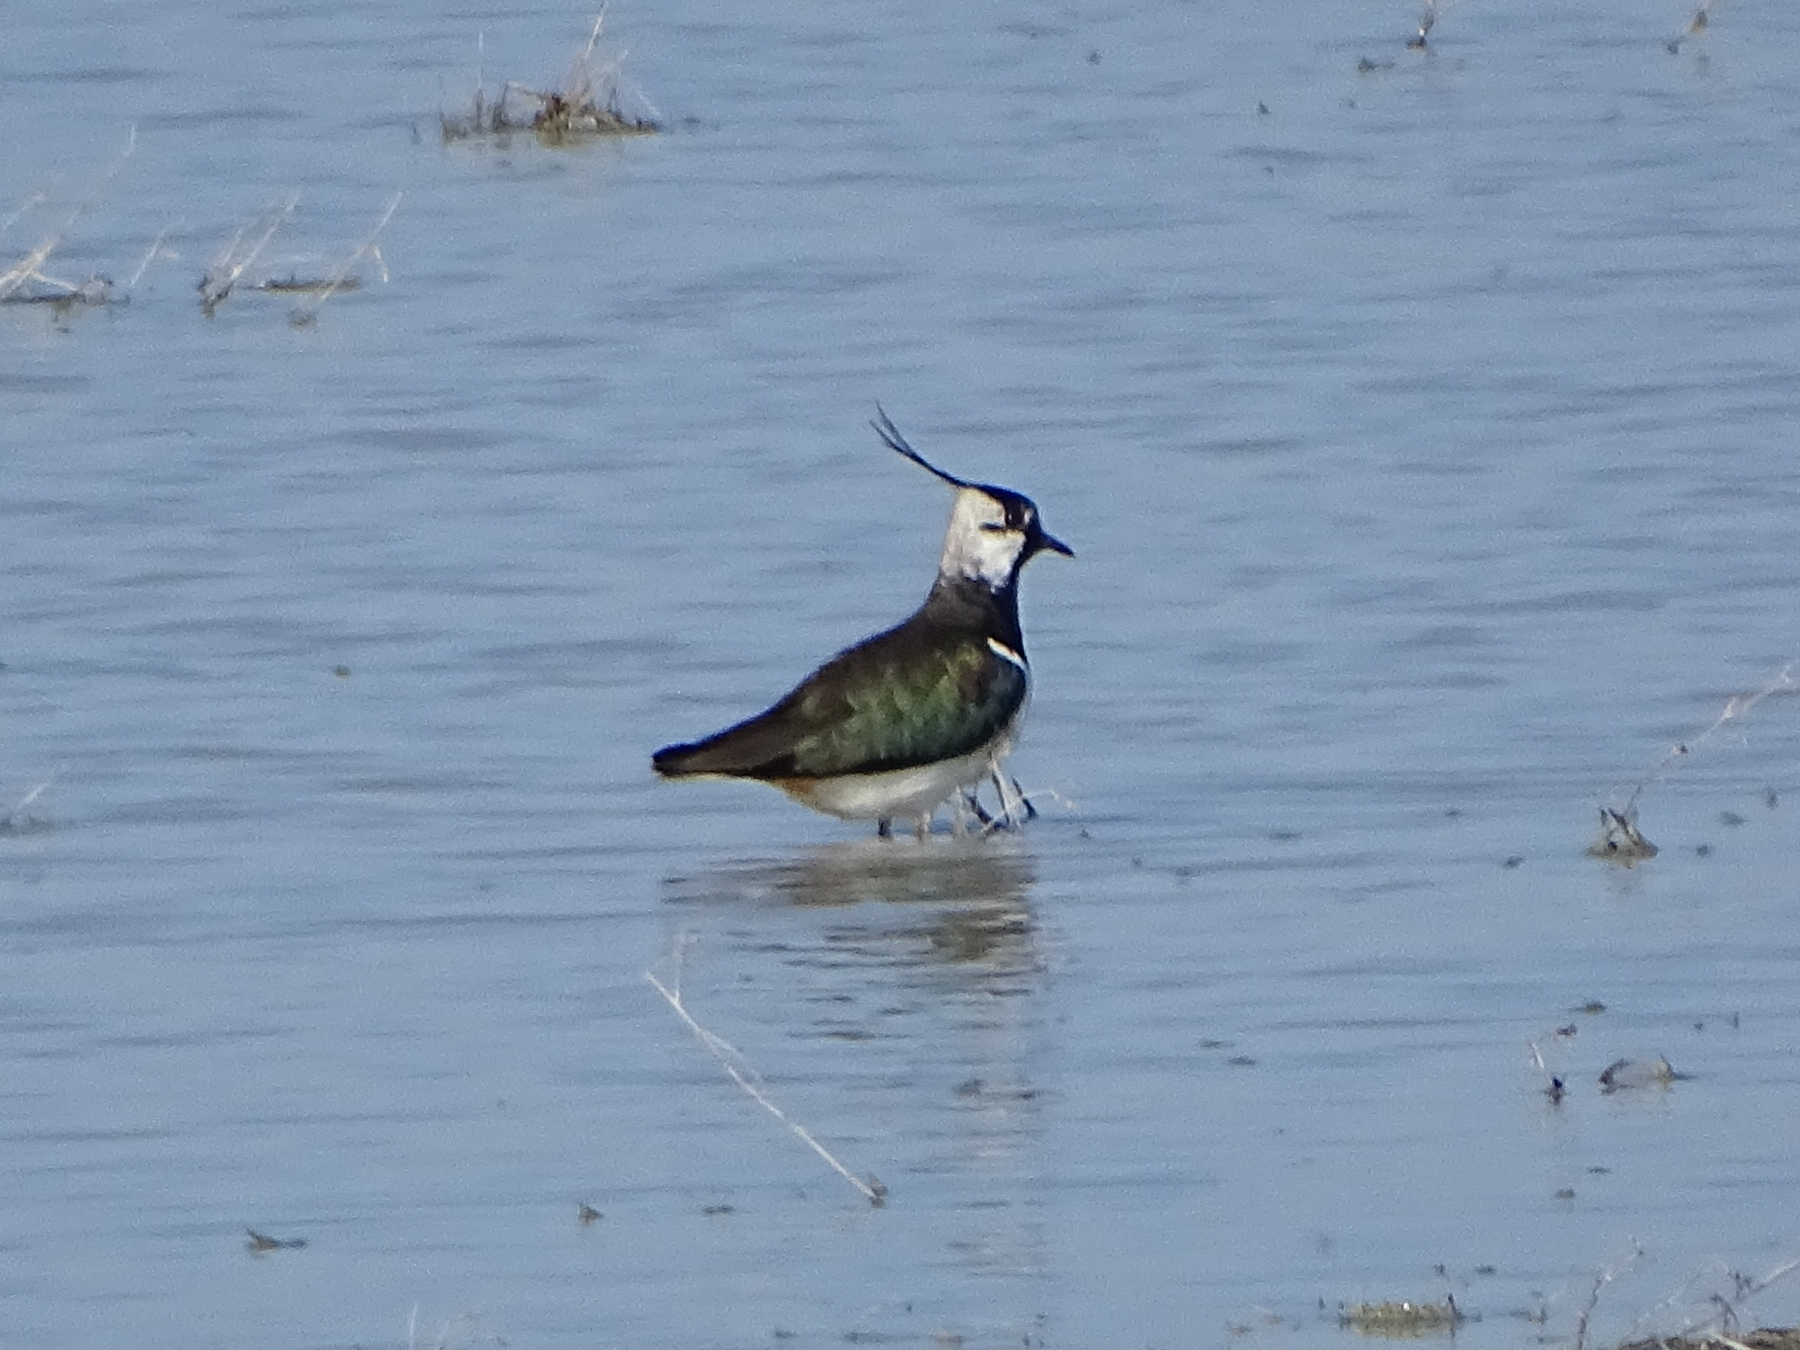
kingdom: Animalia
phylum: Chordata
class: Aves
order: Charadriiformes
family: Charadriidae
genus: Vanellus
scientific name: Vanellus vanellus
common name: Northern lapwing
